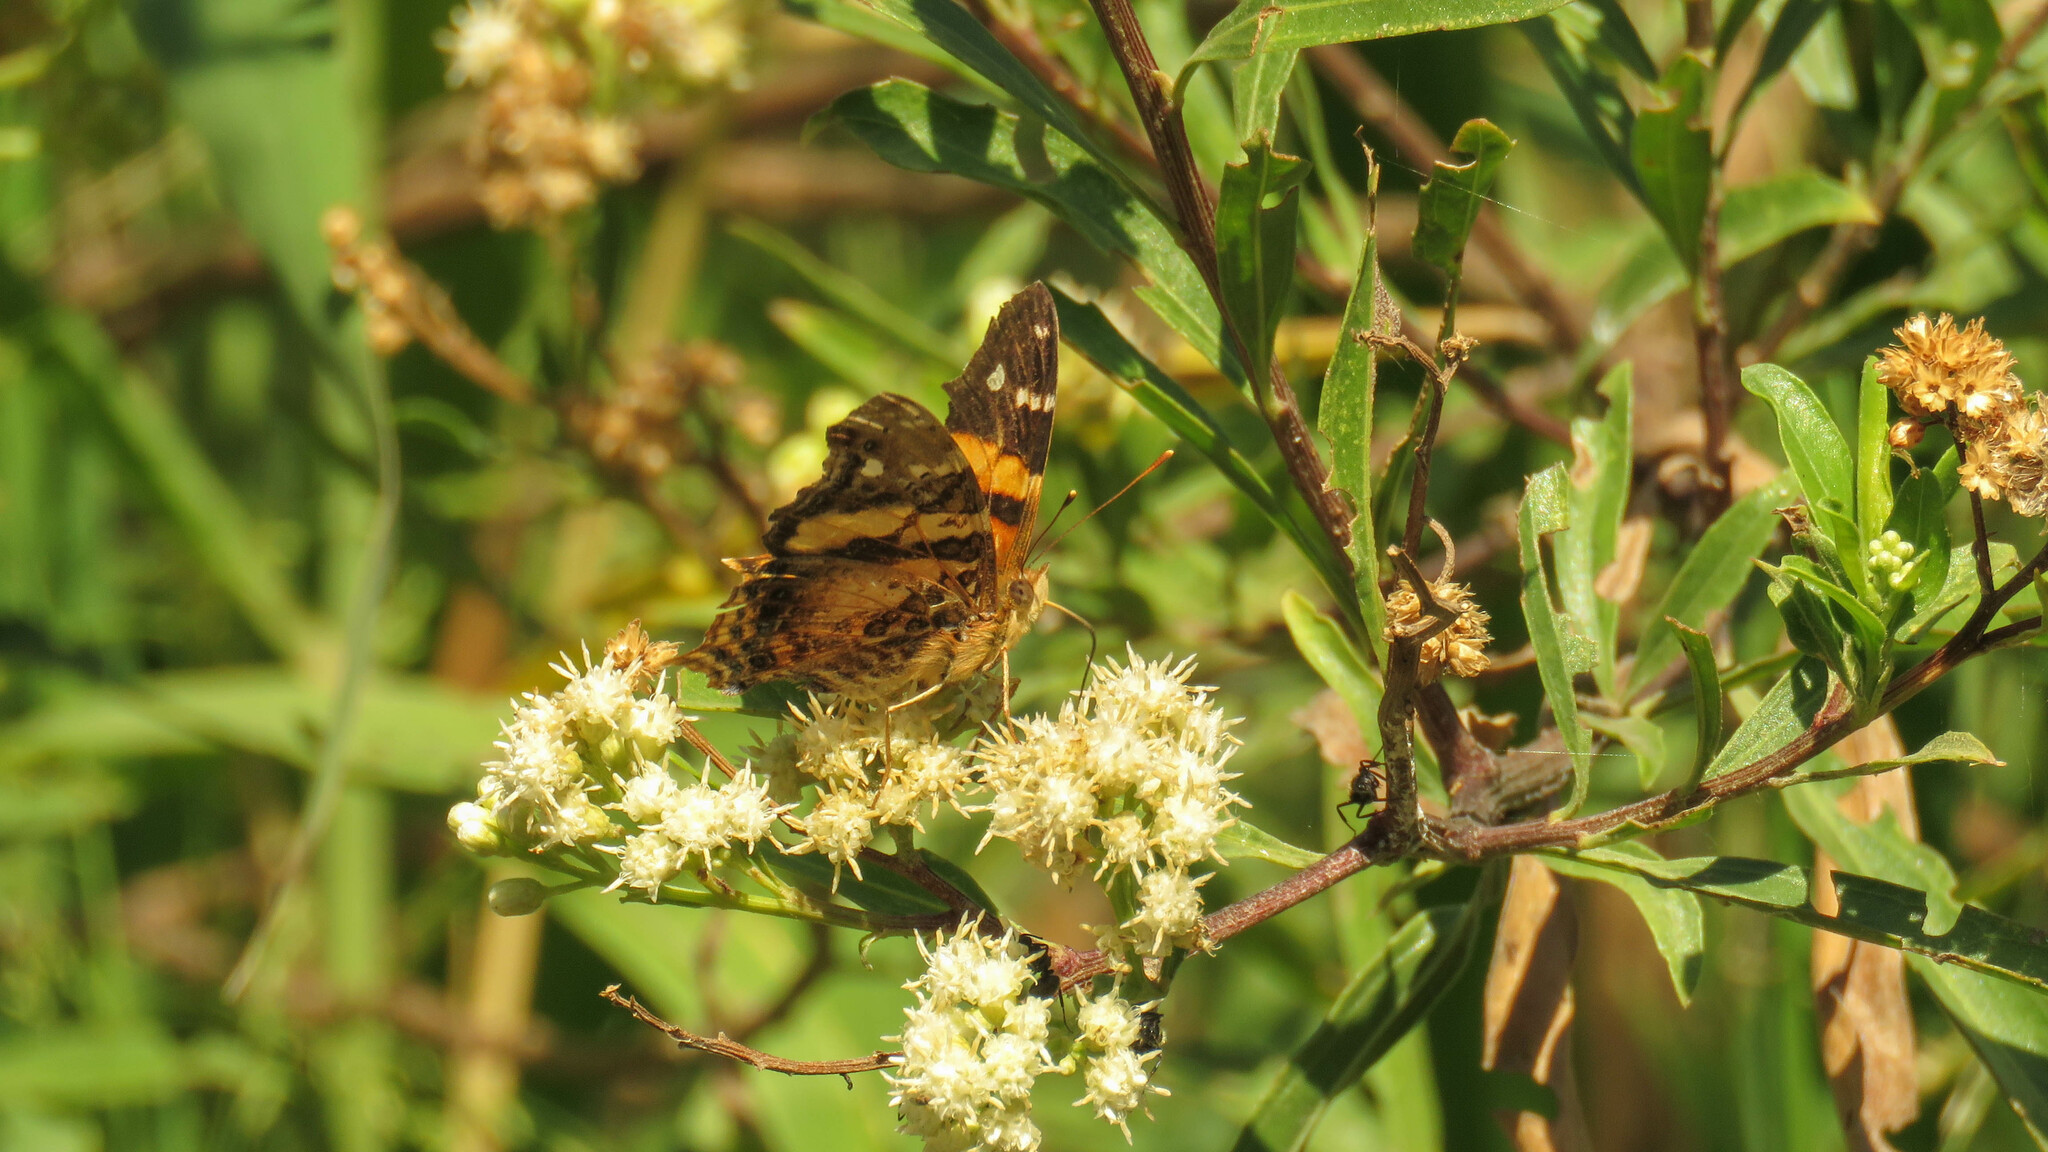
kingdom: Animalia
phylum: Arthropoda
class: Insecta
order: Lepidoptera
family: Nymphalidae
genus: Hypanartia
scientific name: Hypanartia bella
